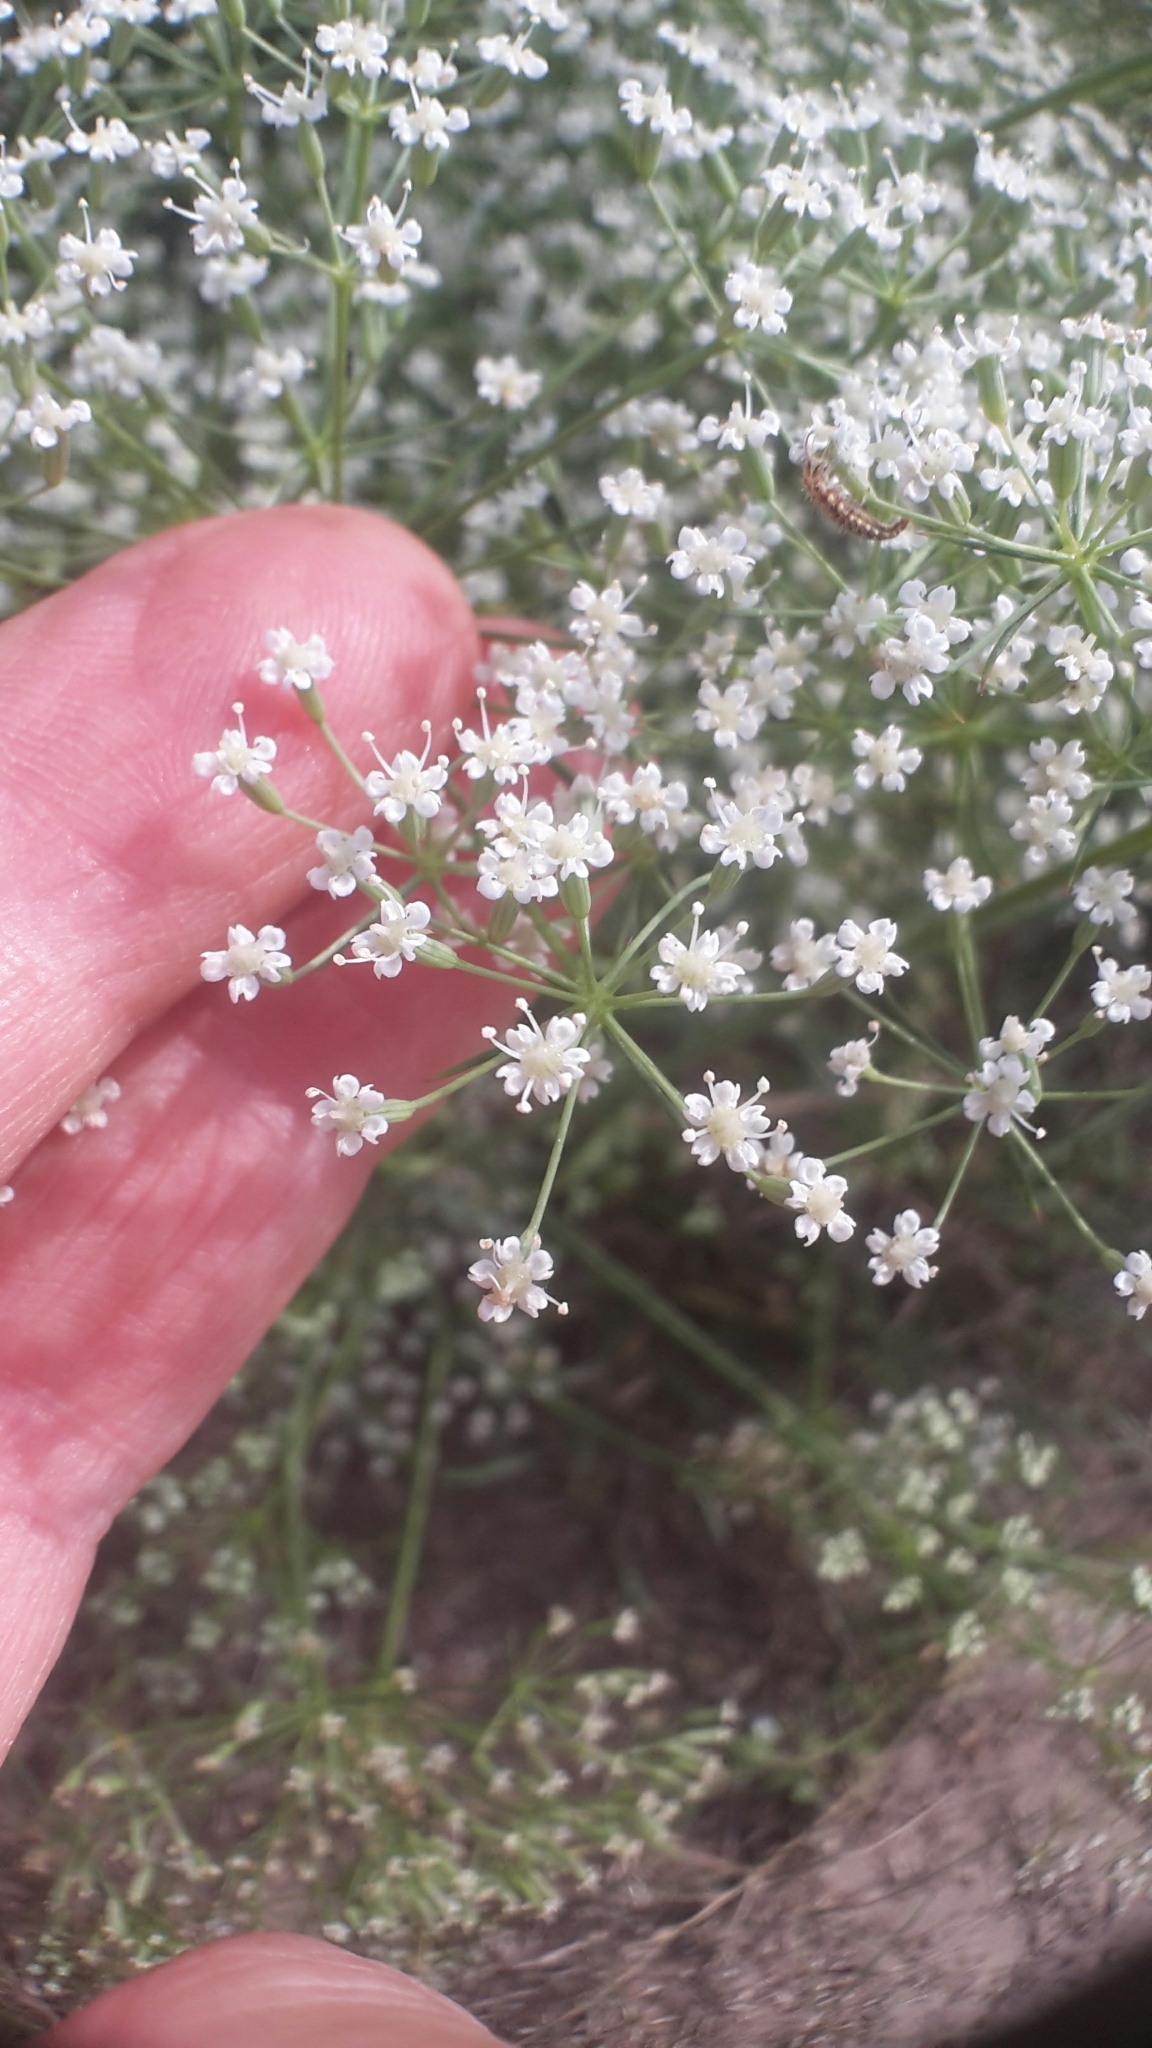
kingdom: Plantae
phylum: Tracheophyta
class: Magnoliopsida
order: Apiales
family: Apiaceae
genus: Falcaria
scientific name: Falcaria vulgaris
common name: Longleaf
